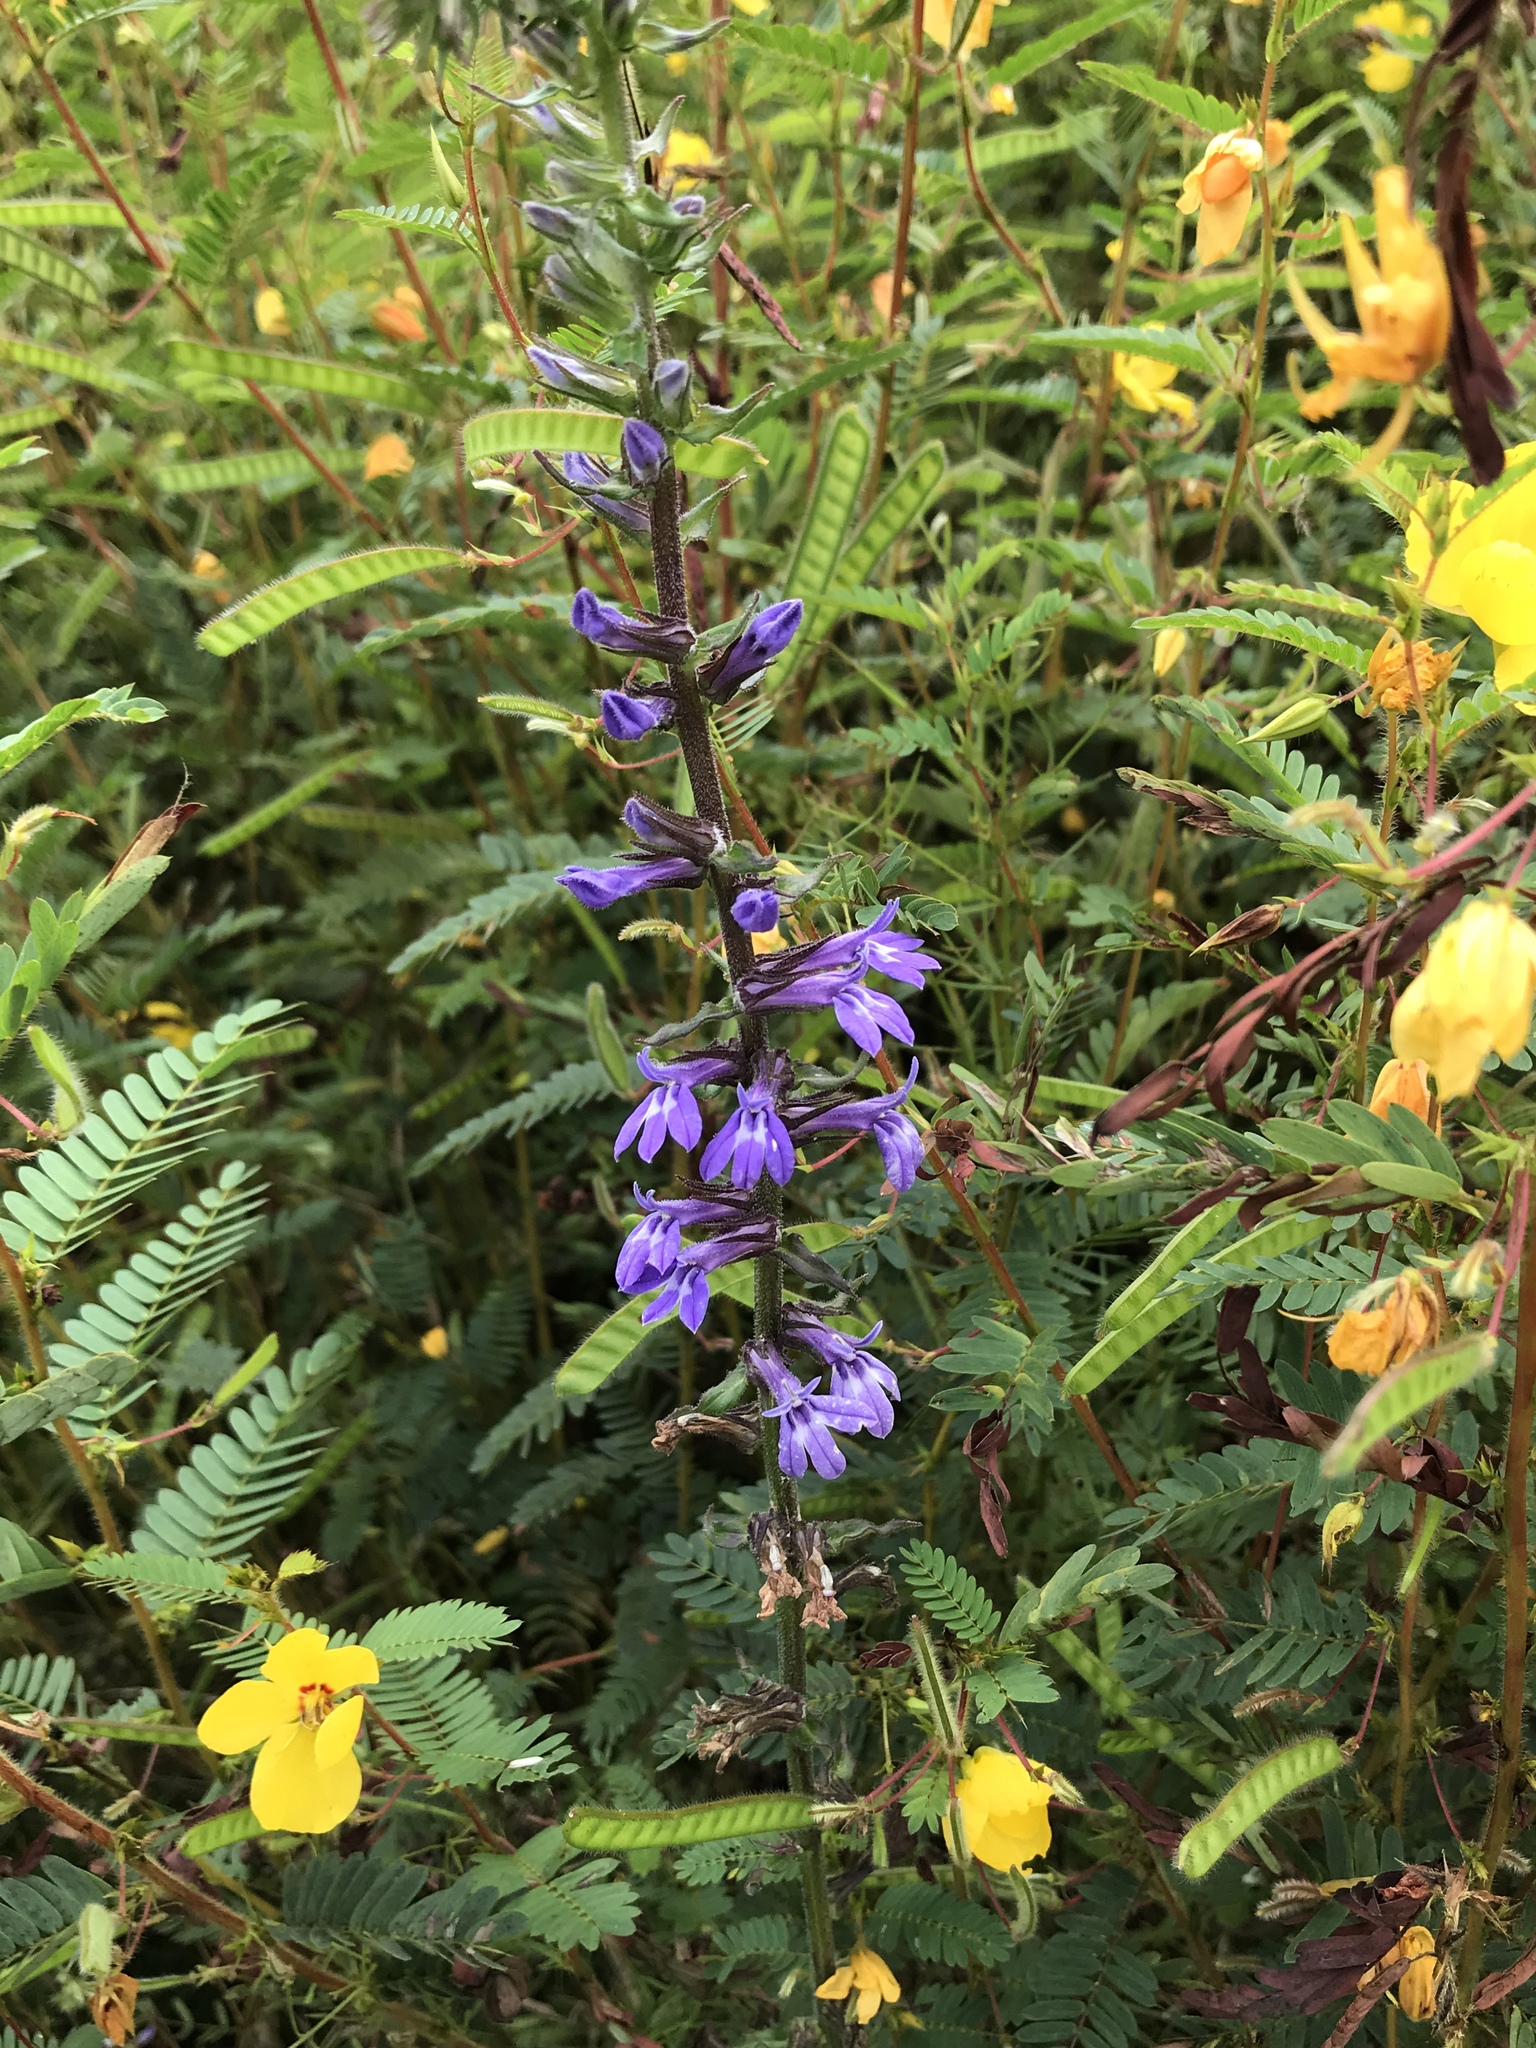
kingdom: Plantae
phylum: Tracheophyta
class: Magnoliopsida
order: Asterales
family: Campanulaceae
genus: Lobelia
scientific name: Lobelia puberula
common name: Purple dewdrop
